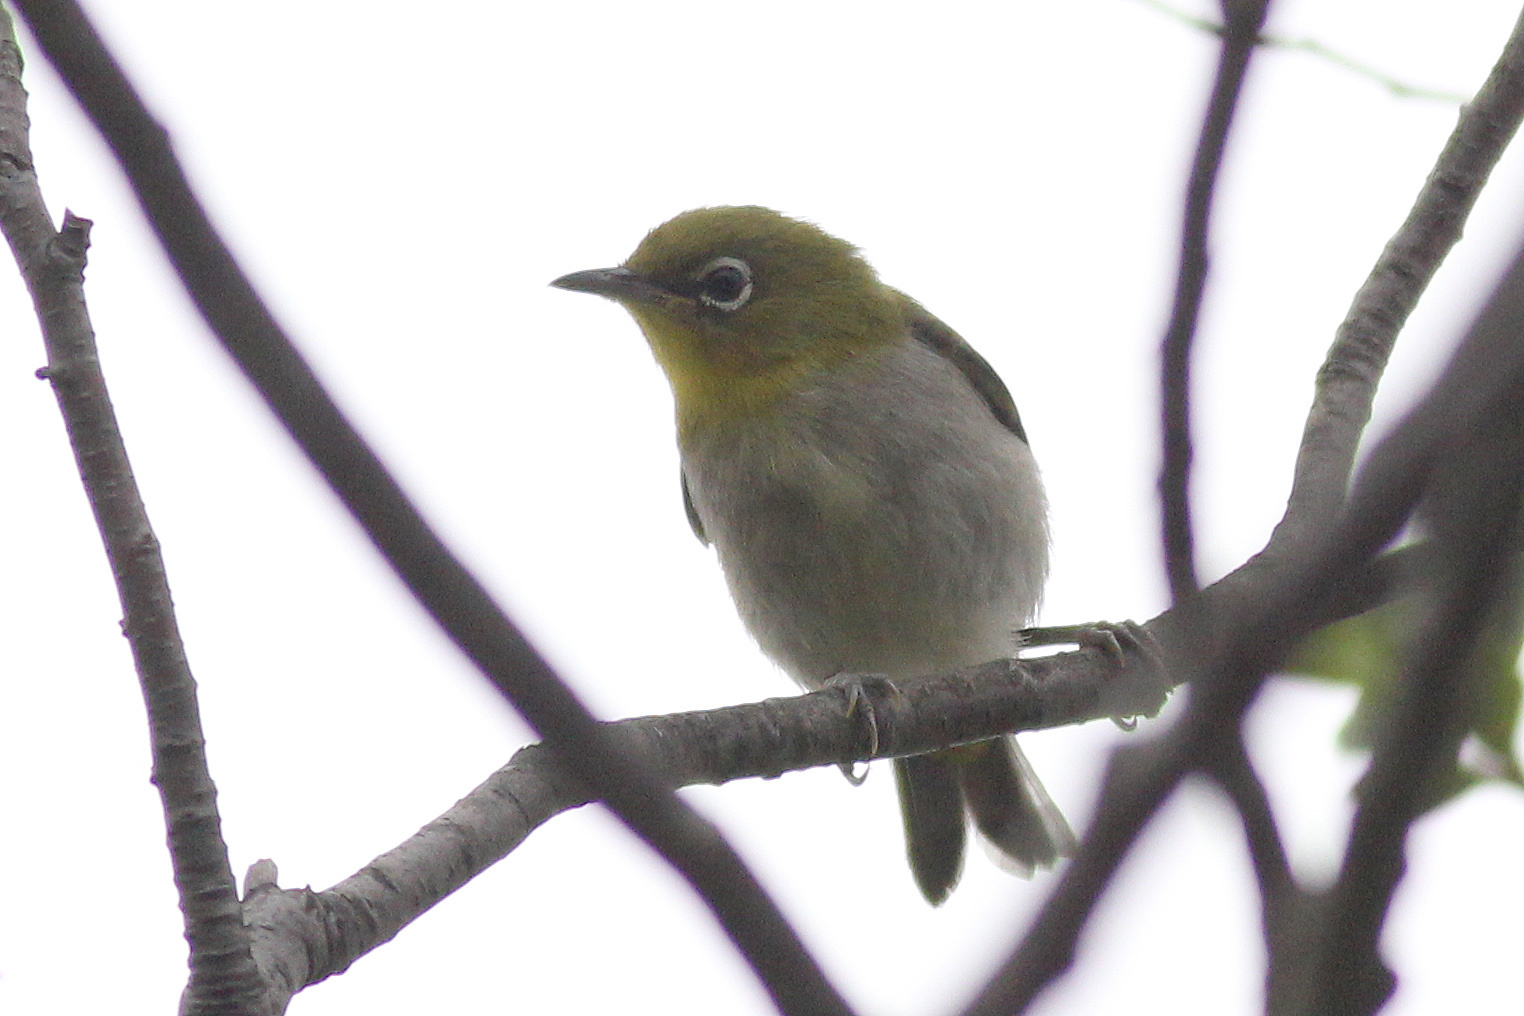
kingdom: Animalia
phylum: Chordata
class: Aves
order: Passeriformes
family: Zosteropidae
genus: Zosterops
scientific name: Zosterops japonicus
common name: Japanese white-eye
